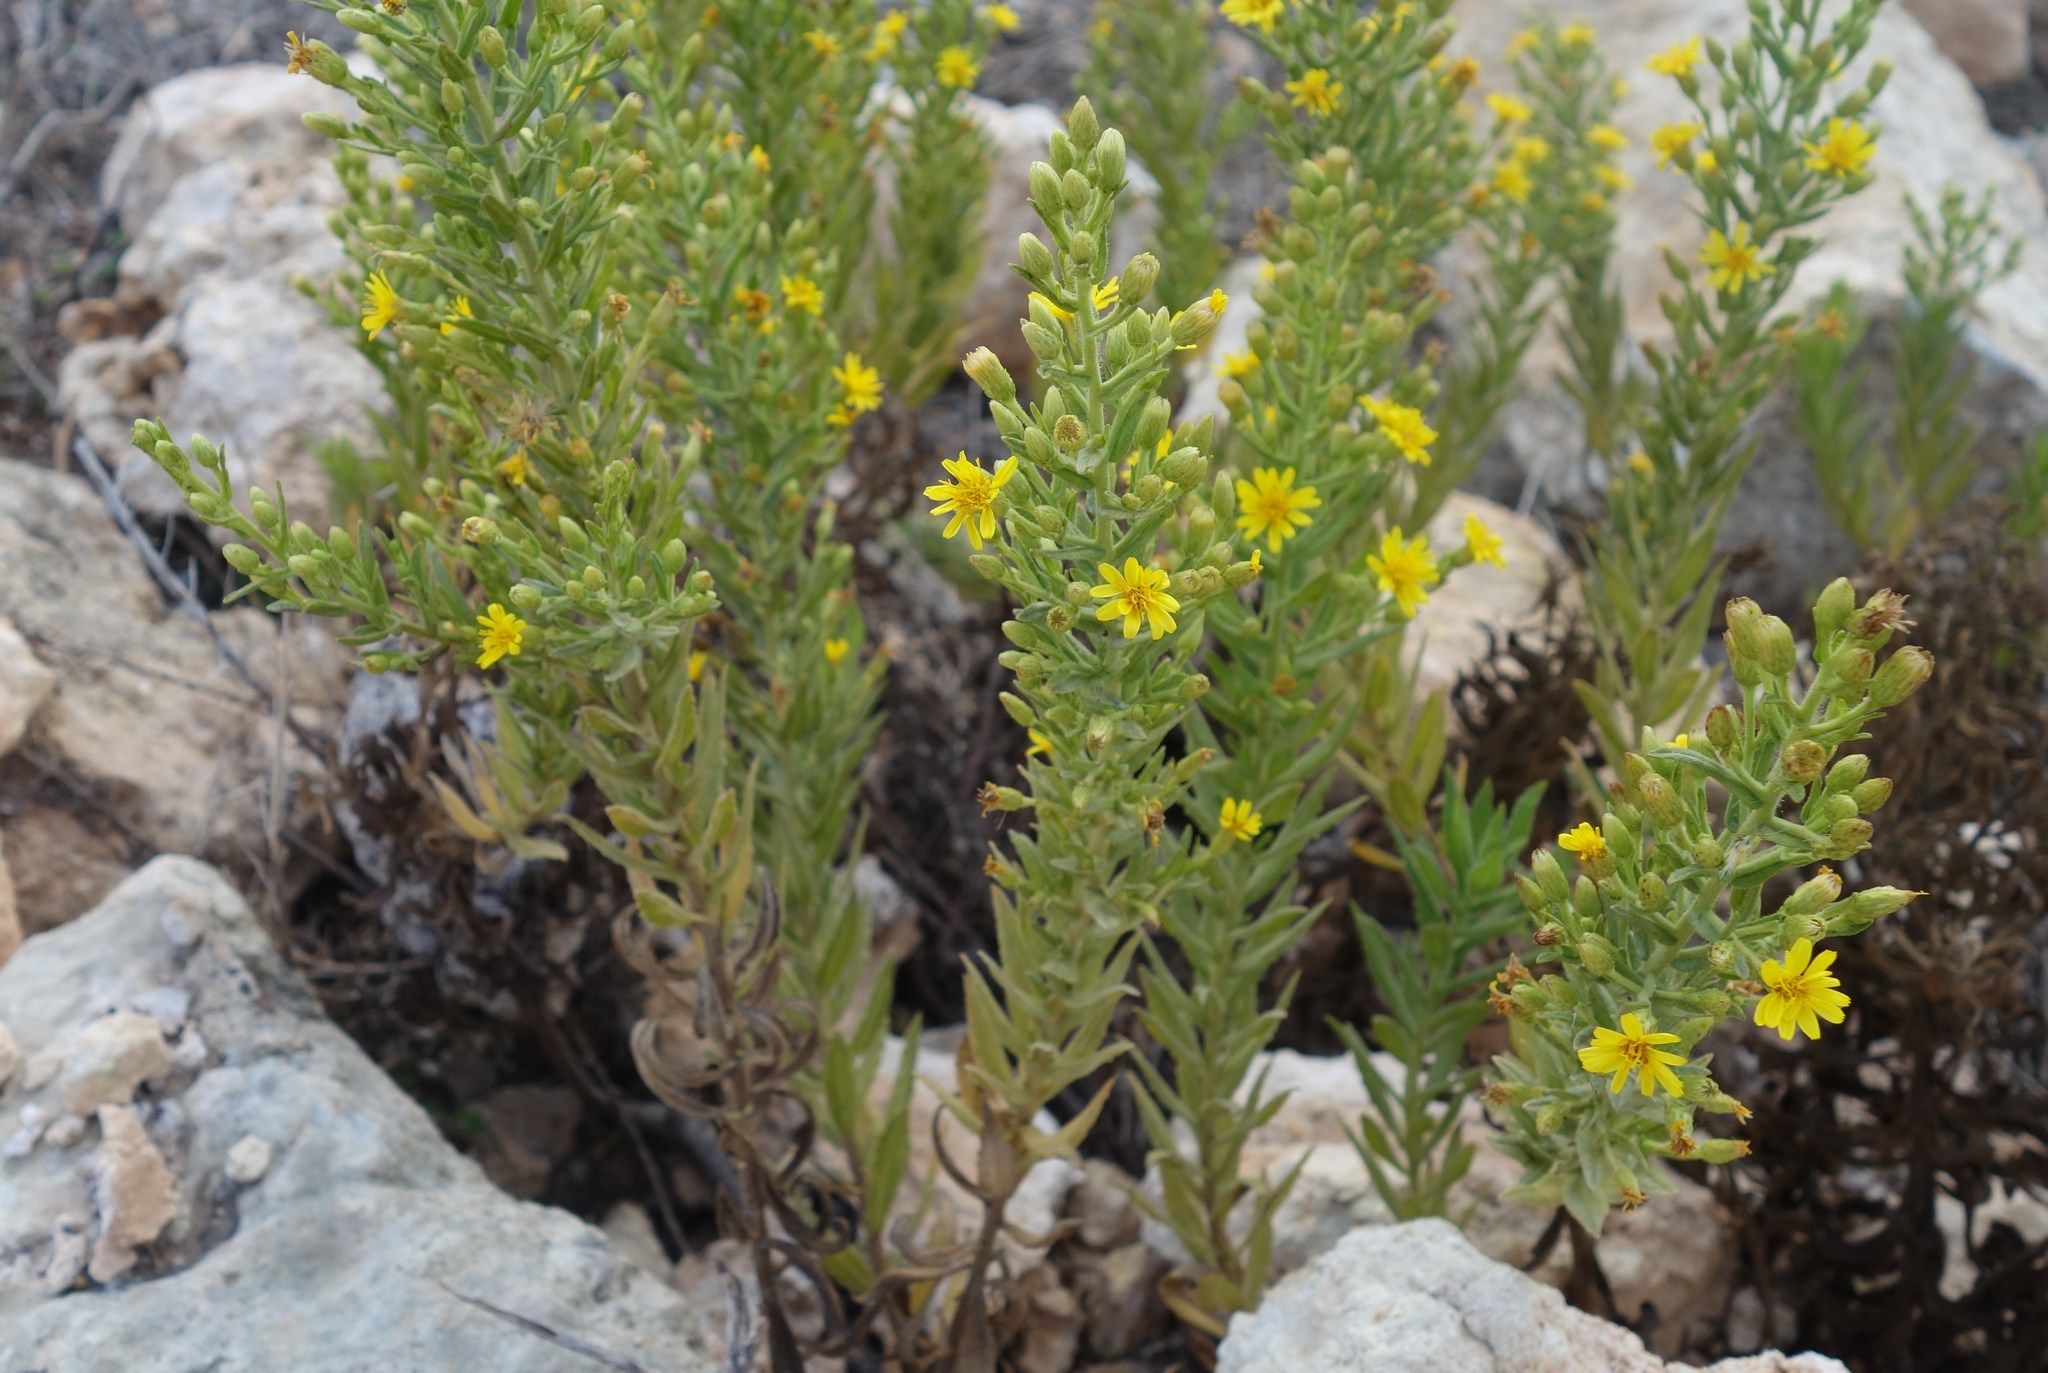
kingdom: Plantae
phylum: Tracheophyta
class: Magnoliopsida
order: Asterales
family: Asteraceae
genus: Dittrichia
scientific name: Dittrichia viscosa
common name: Woody fleabane
